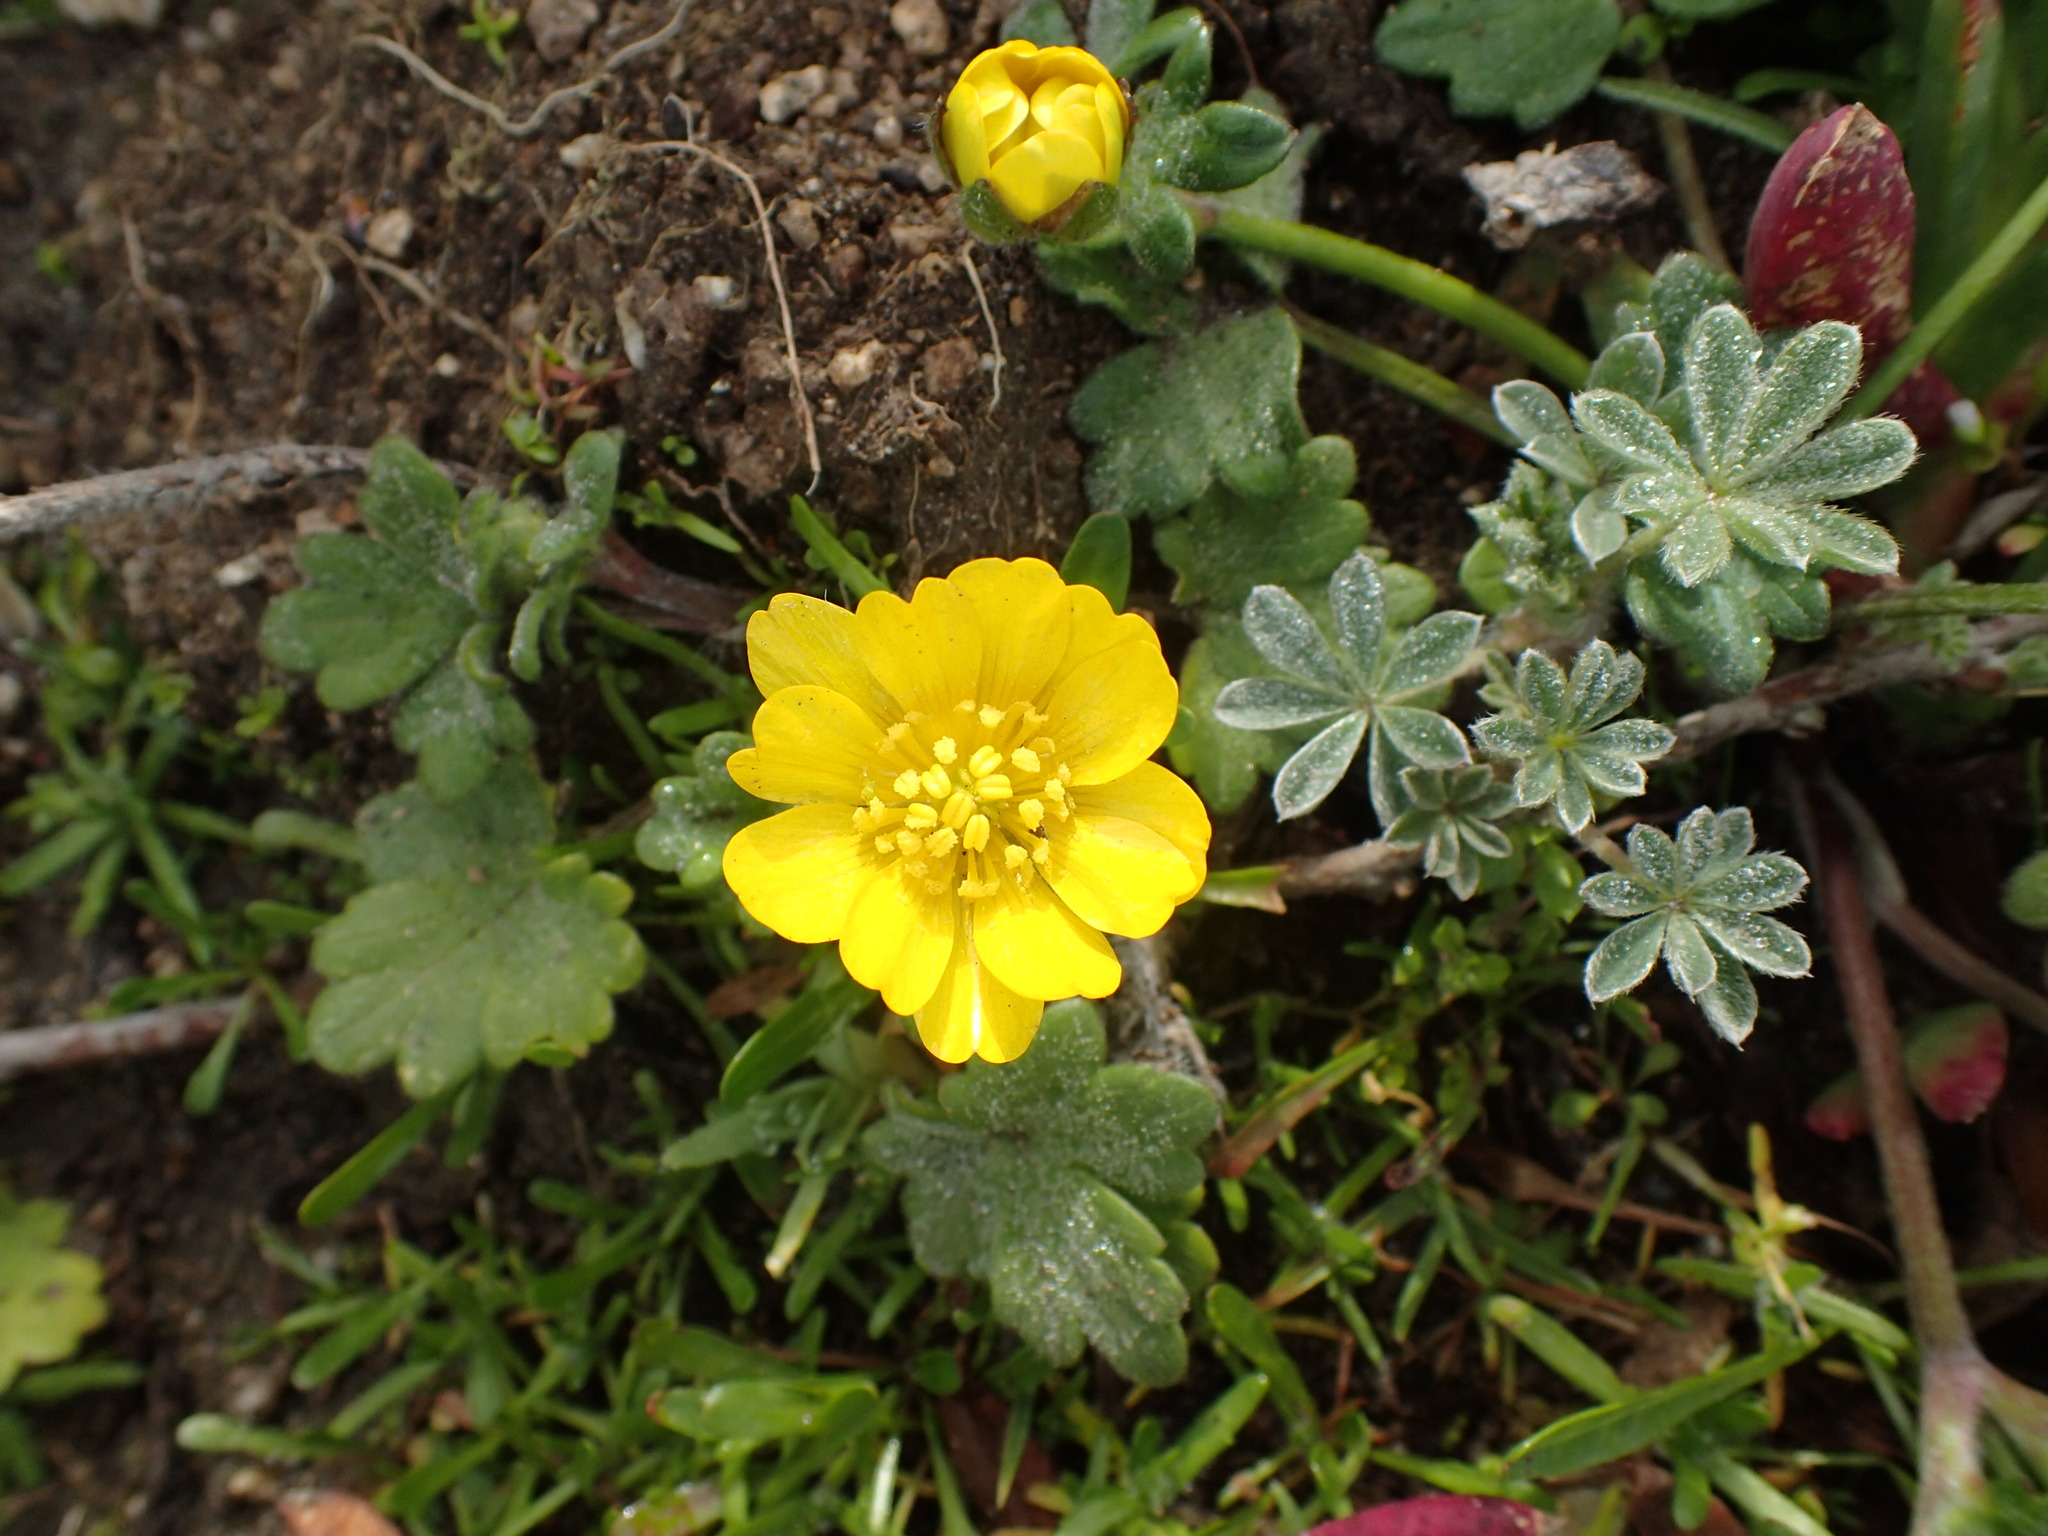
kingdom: Plantae
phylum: Tracheophyta
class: Magnoliopsida
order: Ranunculales
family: Ranunculaceae
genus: Ranunculus
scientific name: Ranunculus californicus
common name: California buttercup
